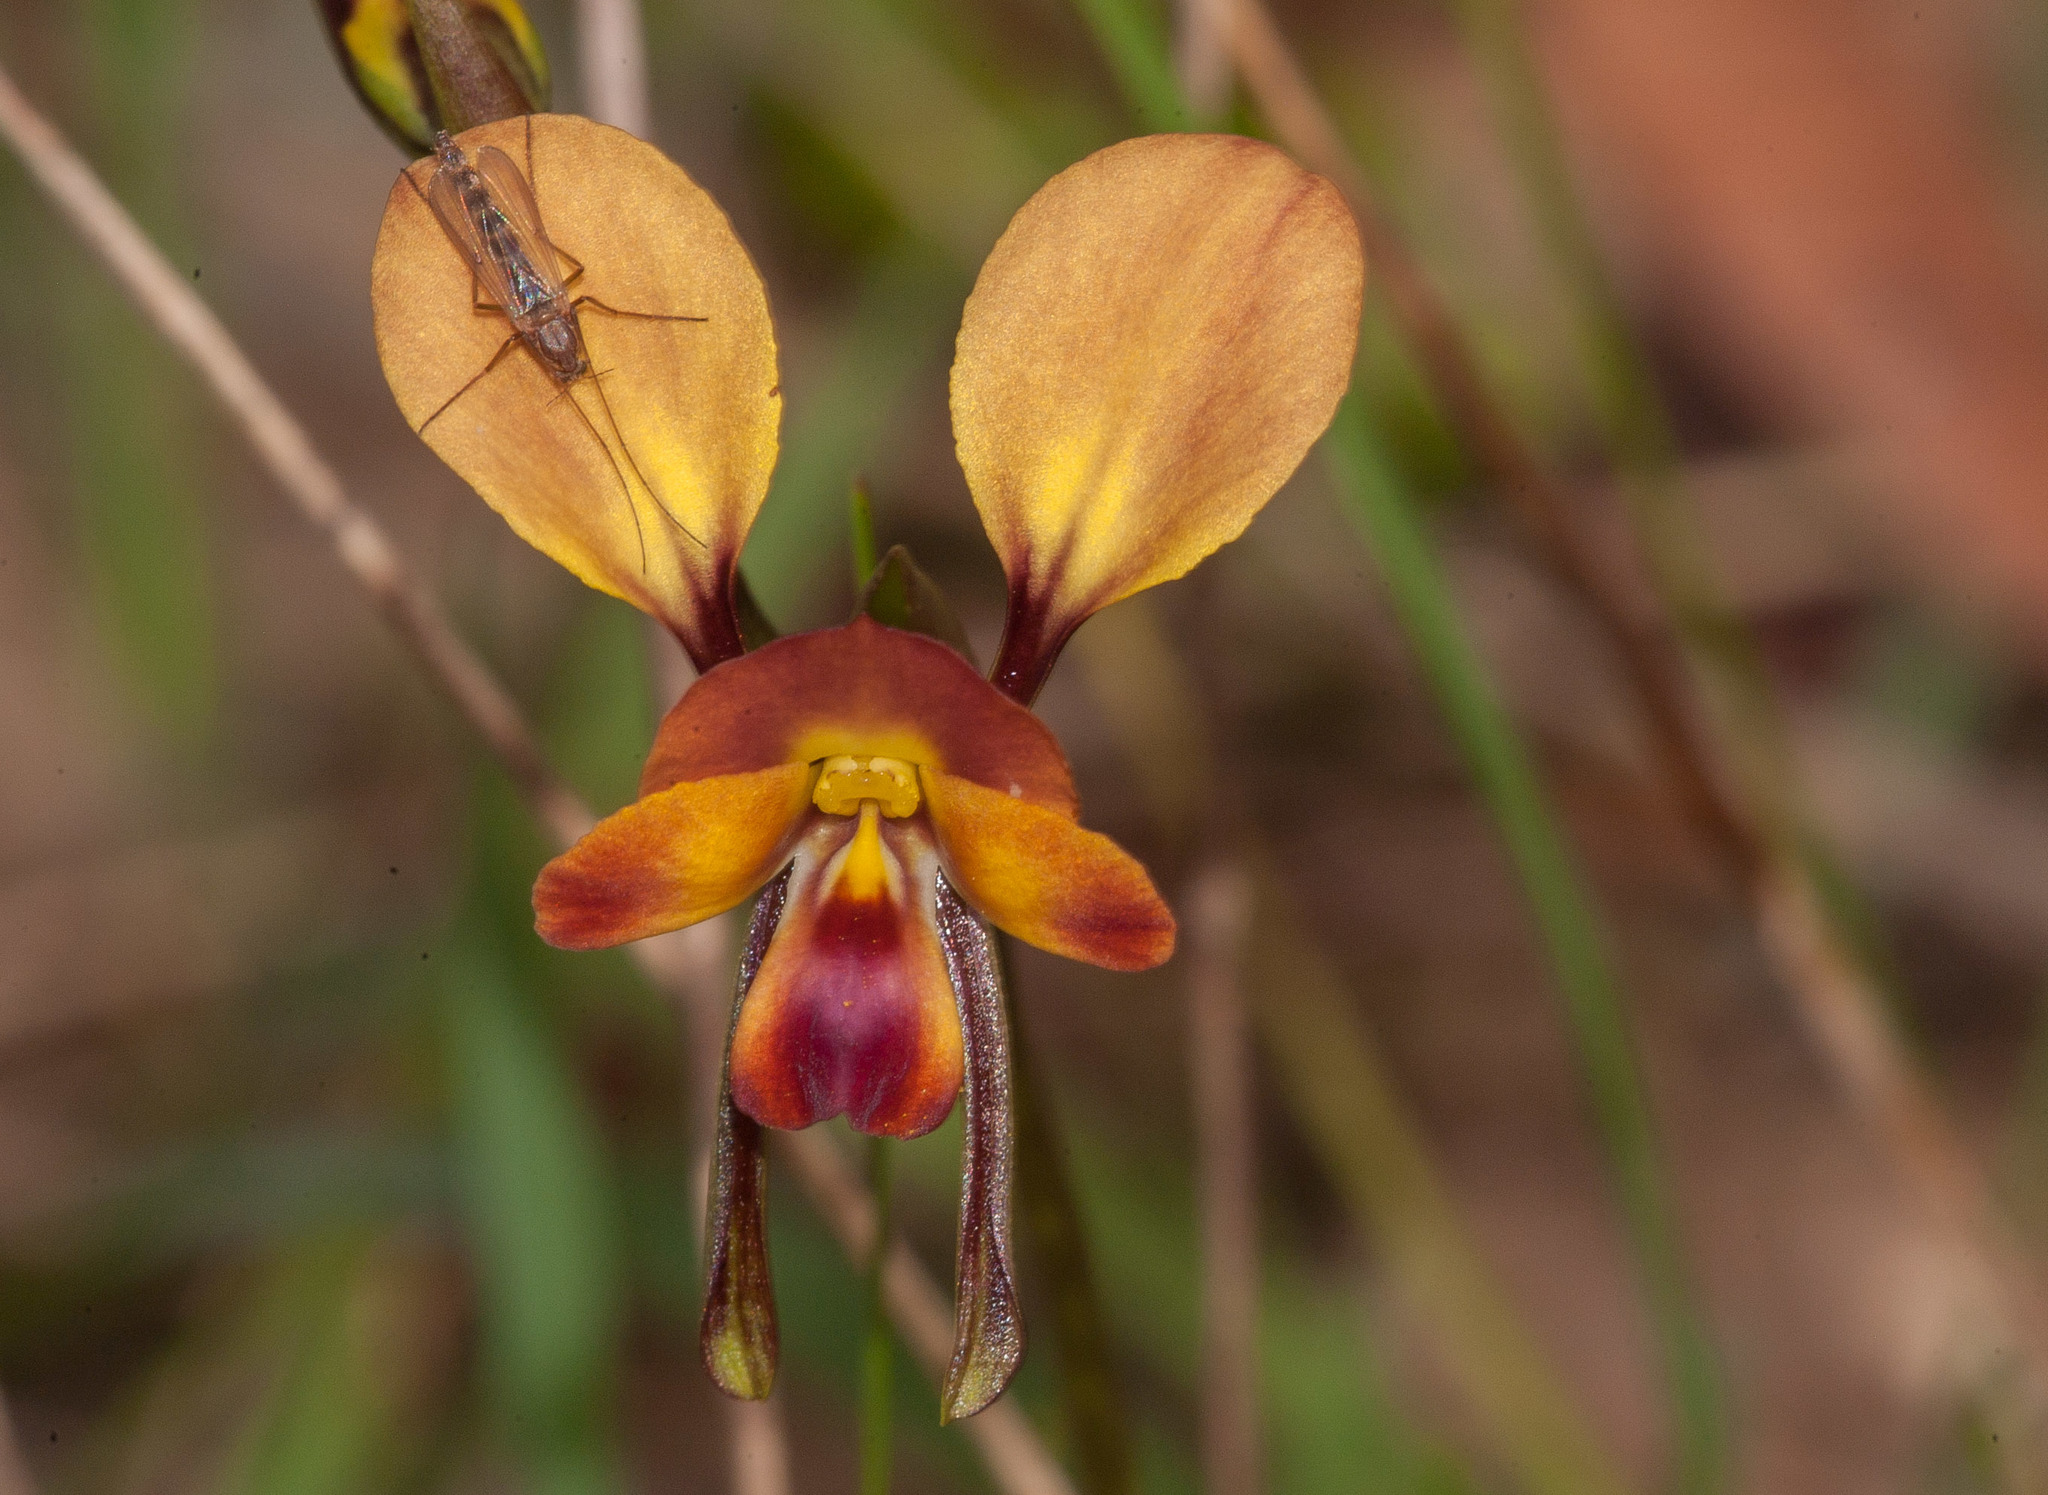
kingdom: Plantae
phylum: Tracheophyta
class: Liliopsida
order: Asparagales
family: Orchidaceae
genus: Diuris
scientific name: Diuris orientis
